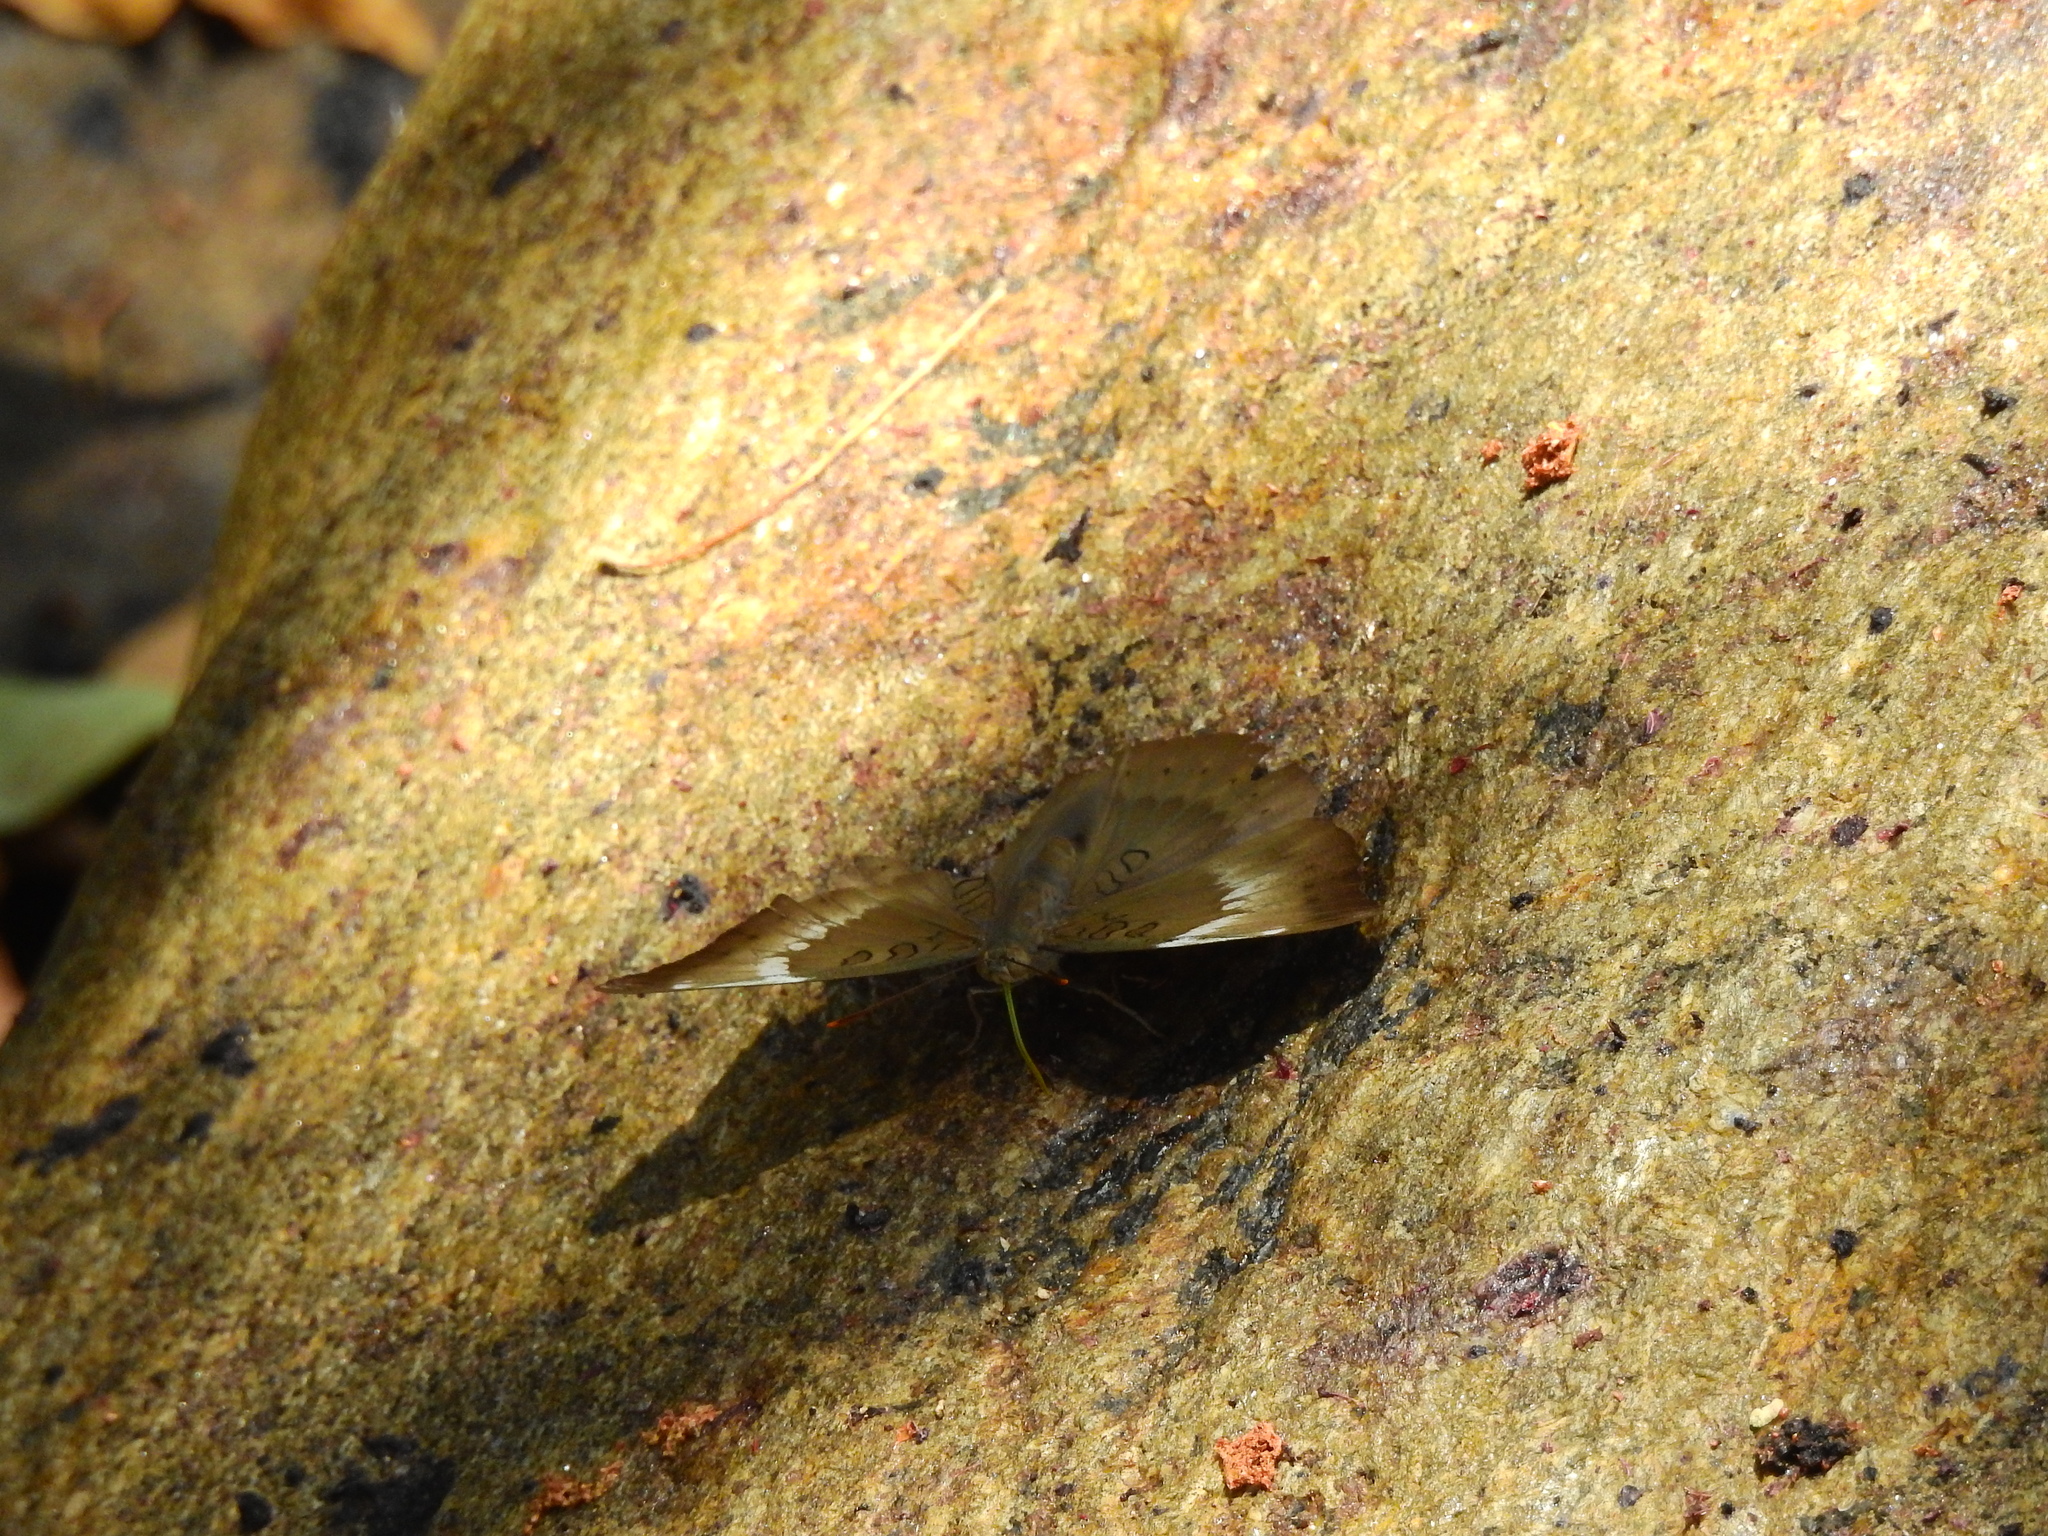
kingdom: Animalia
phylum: Arthropoda
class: Insecta
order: Lepidoptera
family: Nymphalidae
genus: Euthalia
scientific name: Euthalia aconthea
